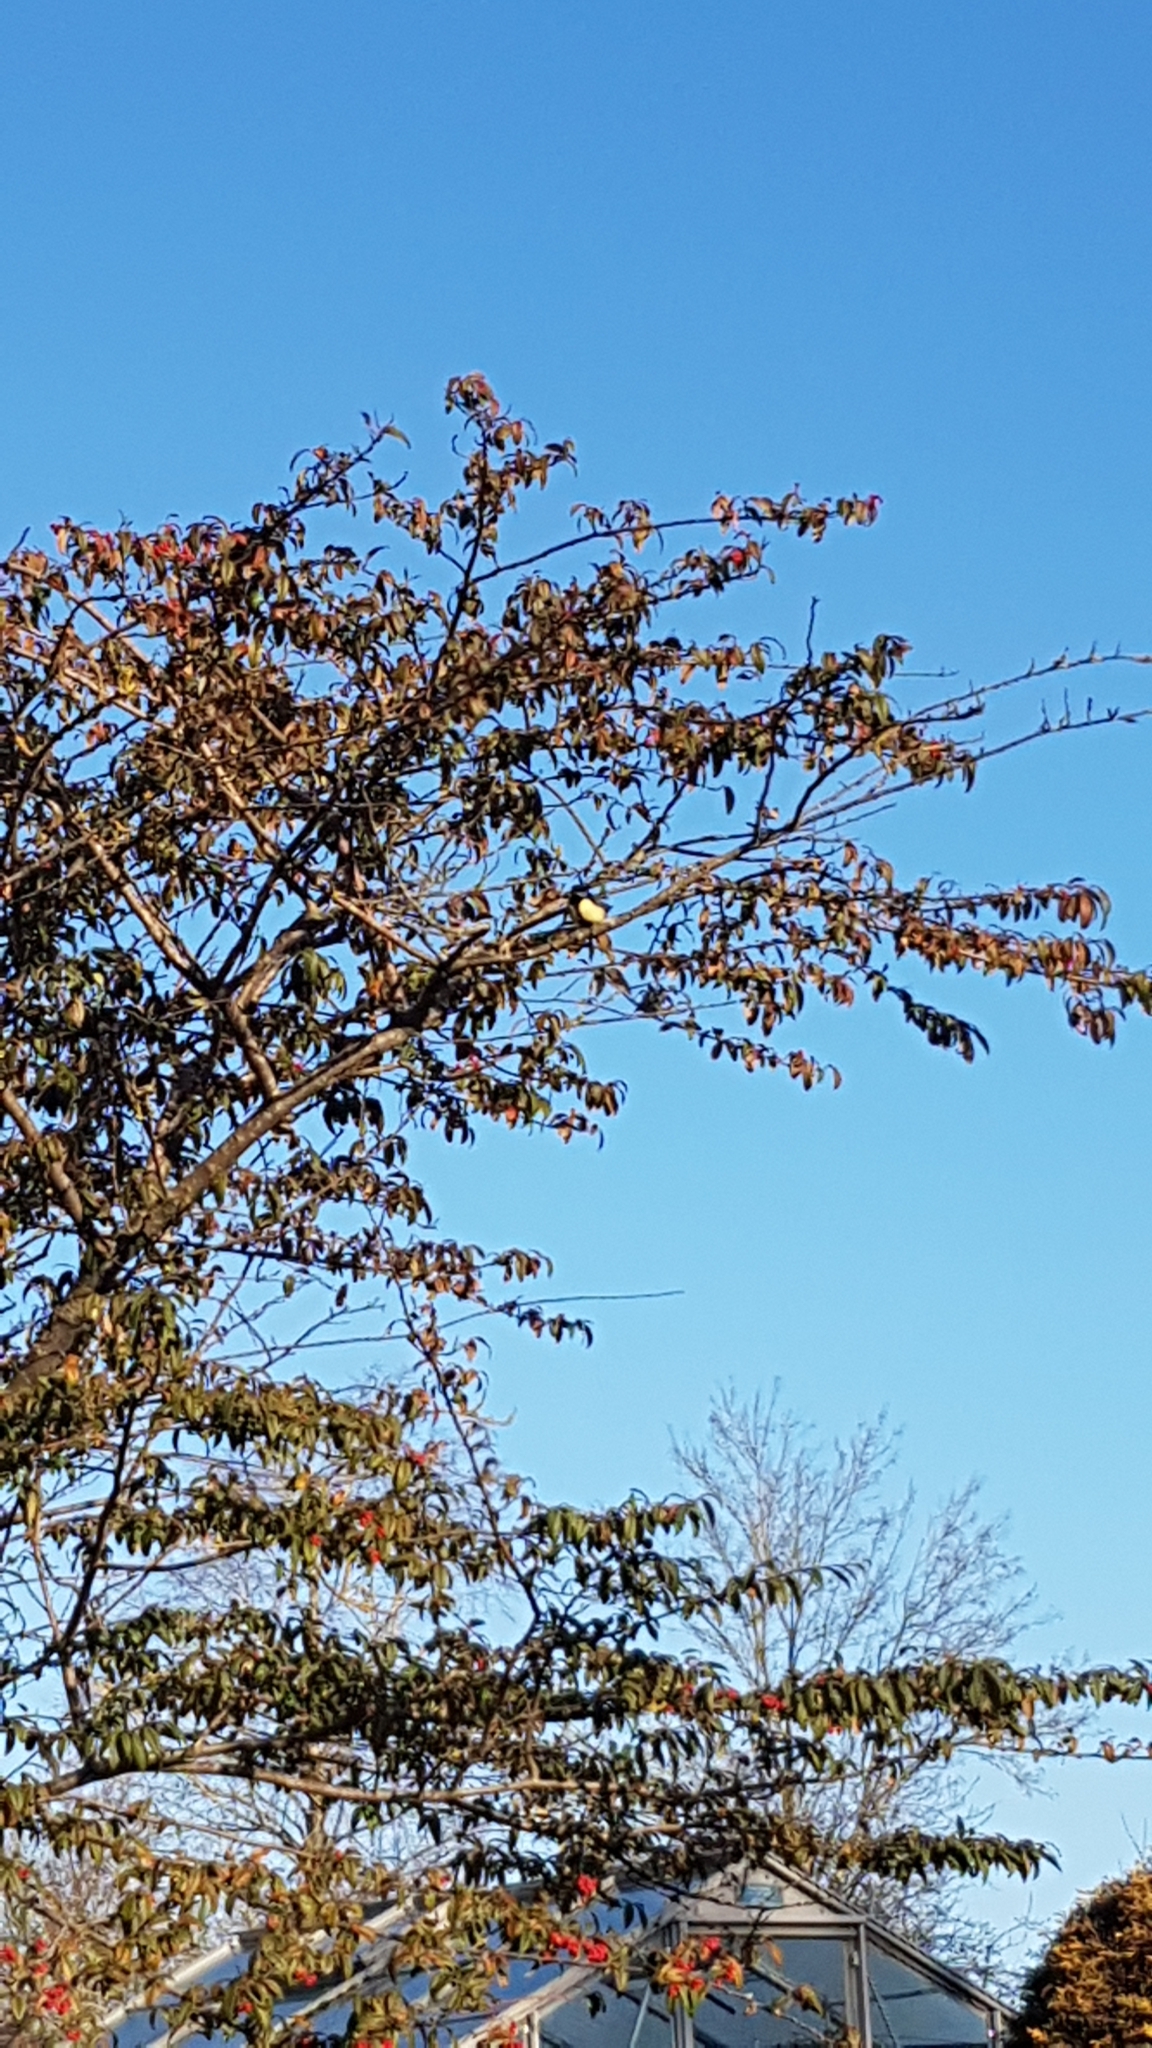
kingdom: Animalia
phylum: Chordata
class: Aves
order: Passeriformes
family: Paridae
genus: Parus
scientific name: Parus major
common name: Great tit
